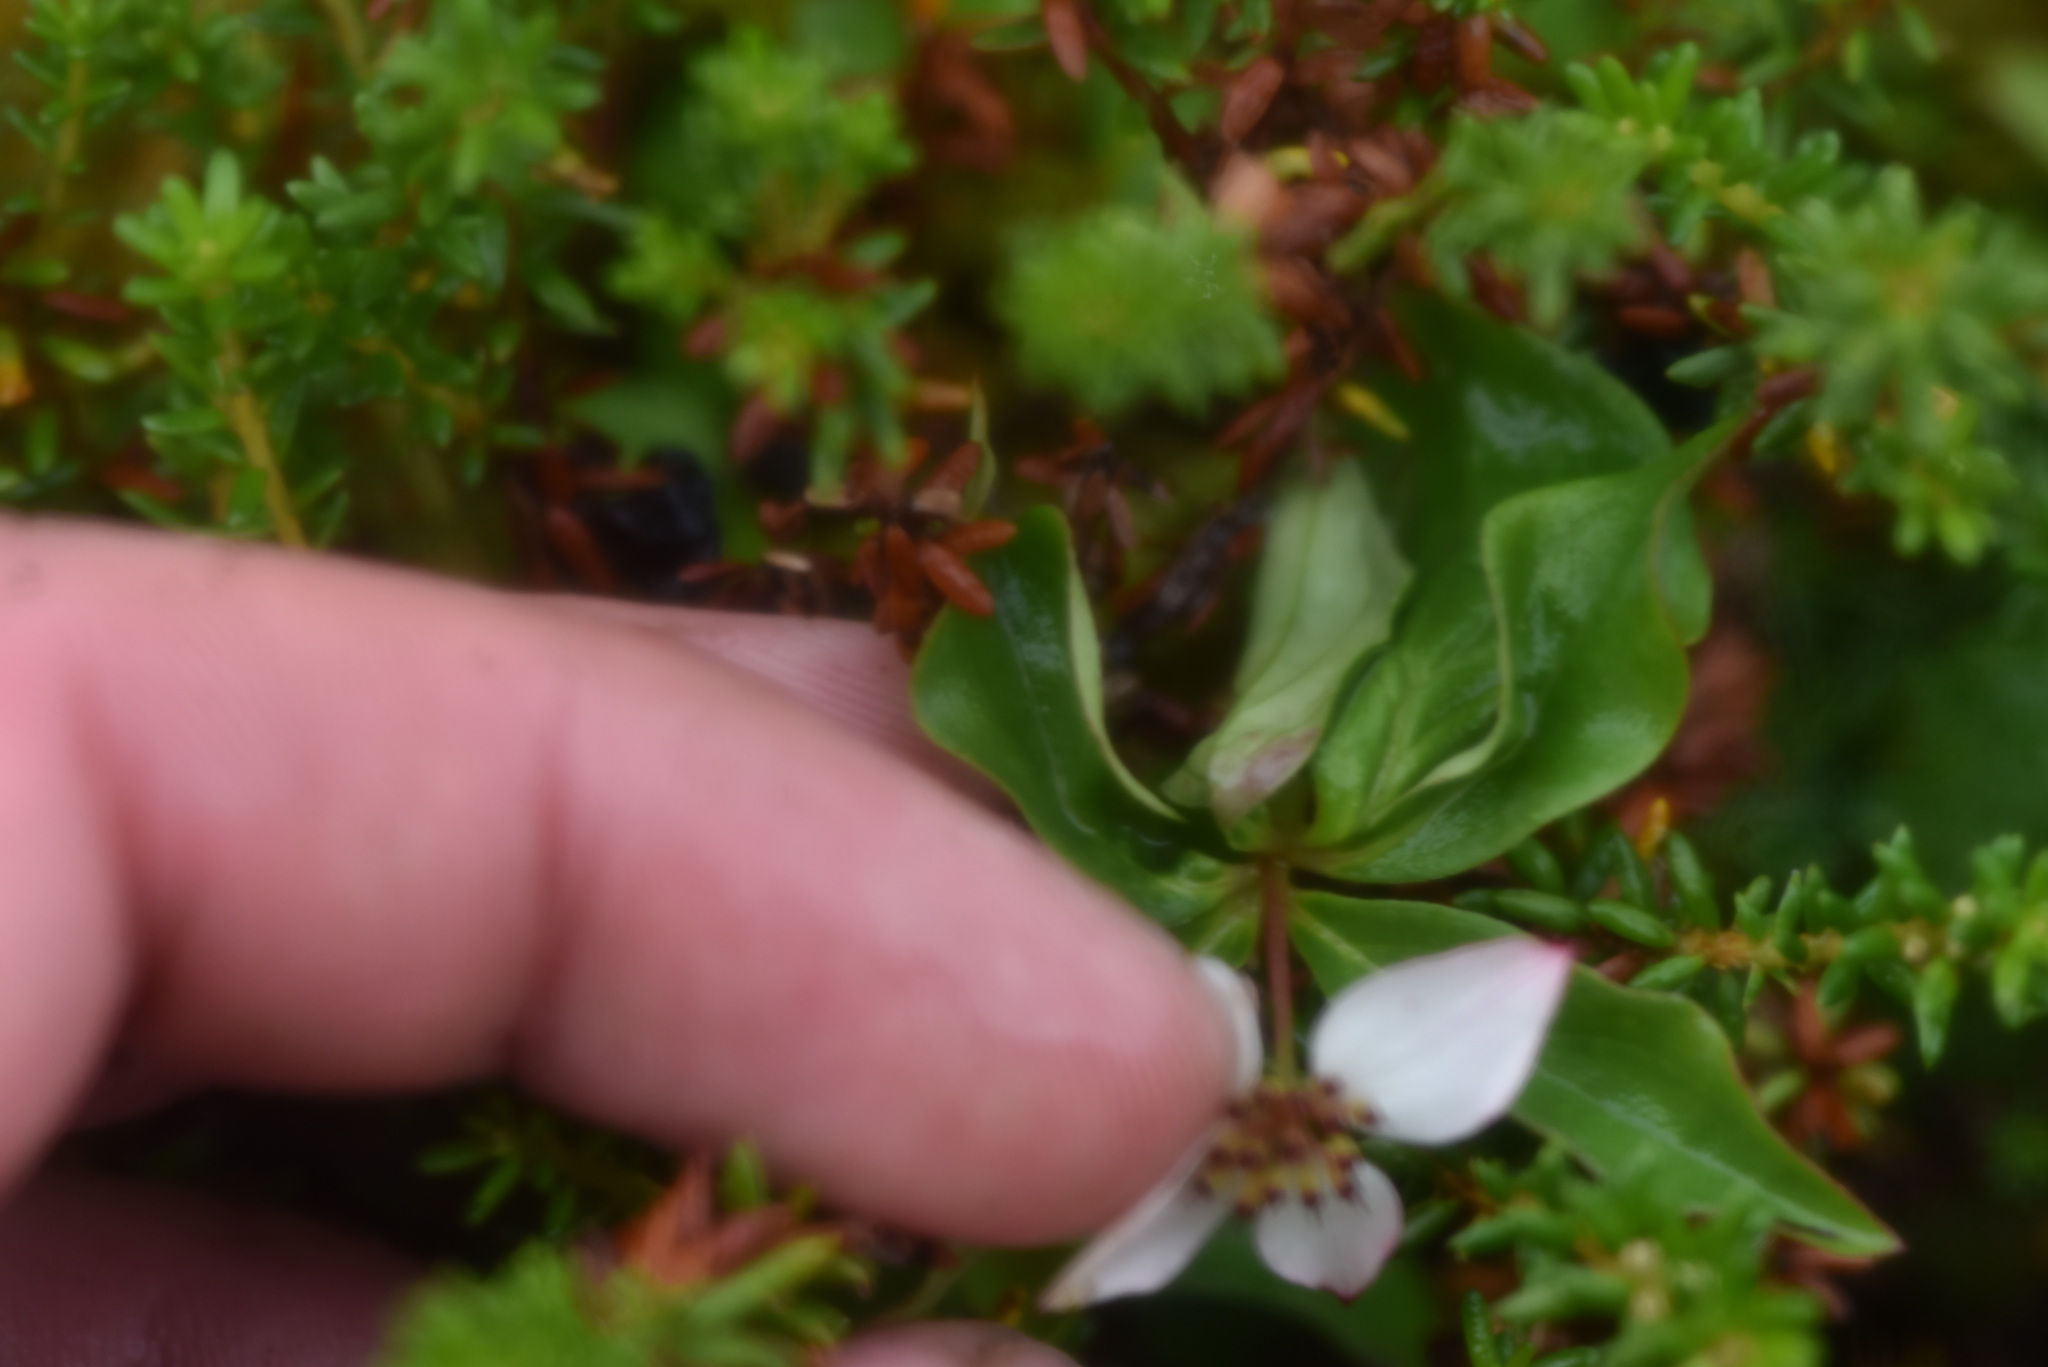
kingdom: Plantae
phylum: Tracheophyta
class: Magnoliopsida
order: Cornales
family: Cornaceae
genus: Cornus
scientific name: Cornus unalaschkensis
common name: Alaska bunchberry
